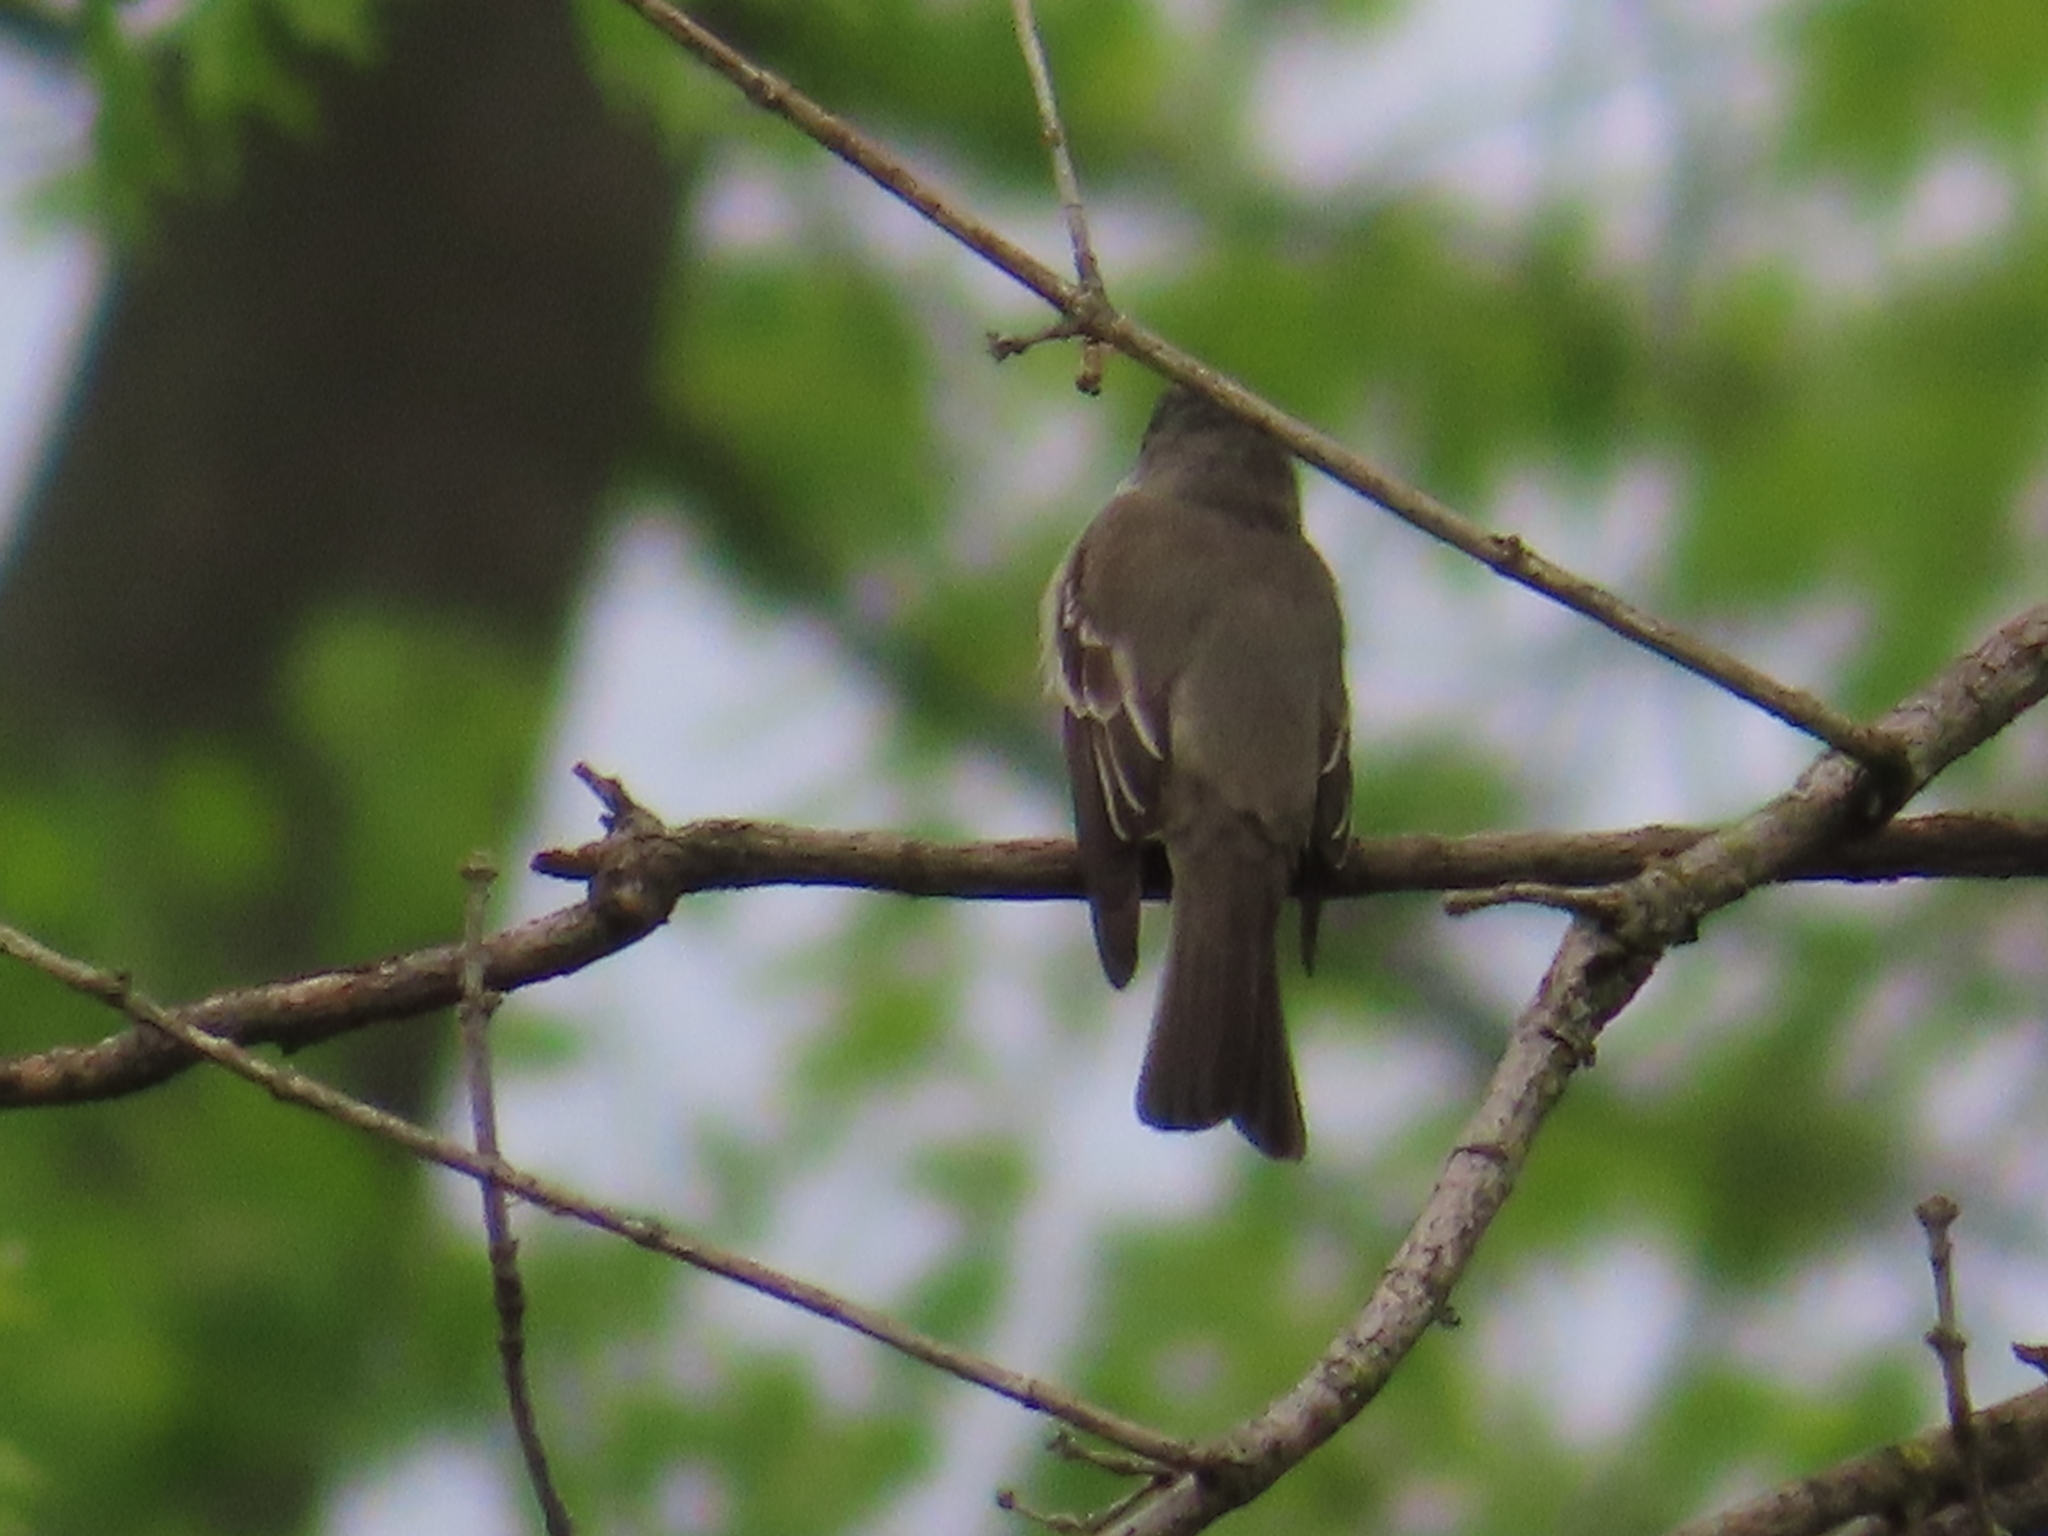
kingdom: Animalia
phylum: Chordata
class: Aves
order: Passeriformes
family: Tyrannidae
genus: Contopus
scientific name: Contopus virens
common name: Eastern wood-pewee
